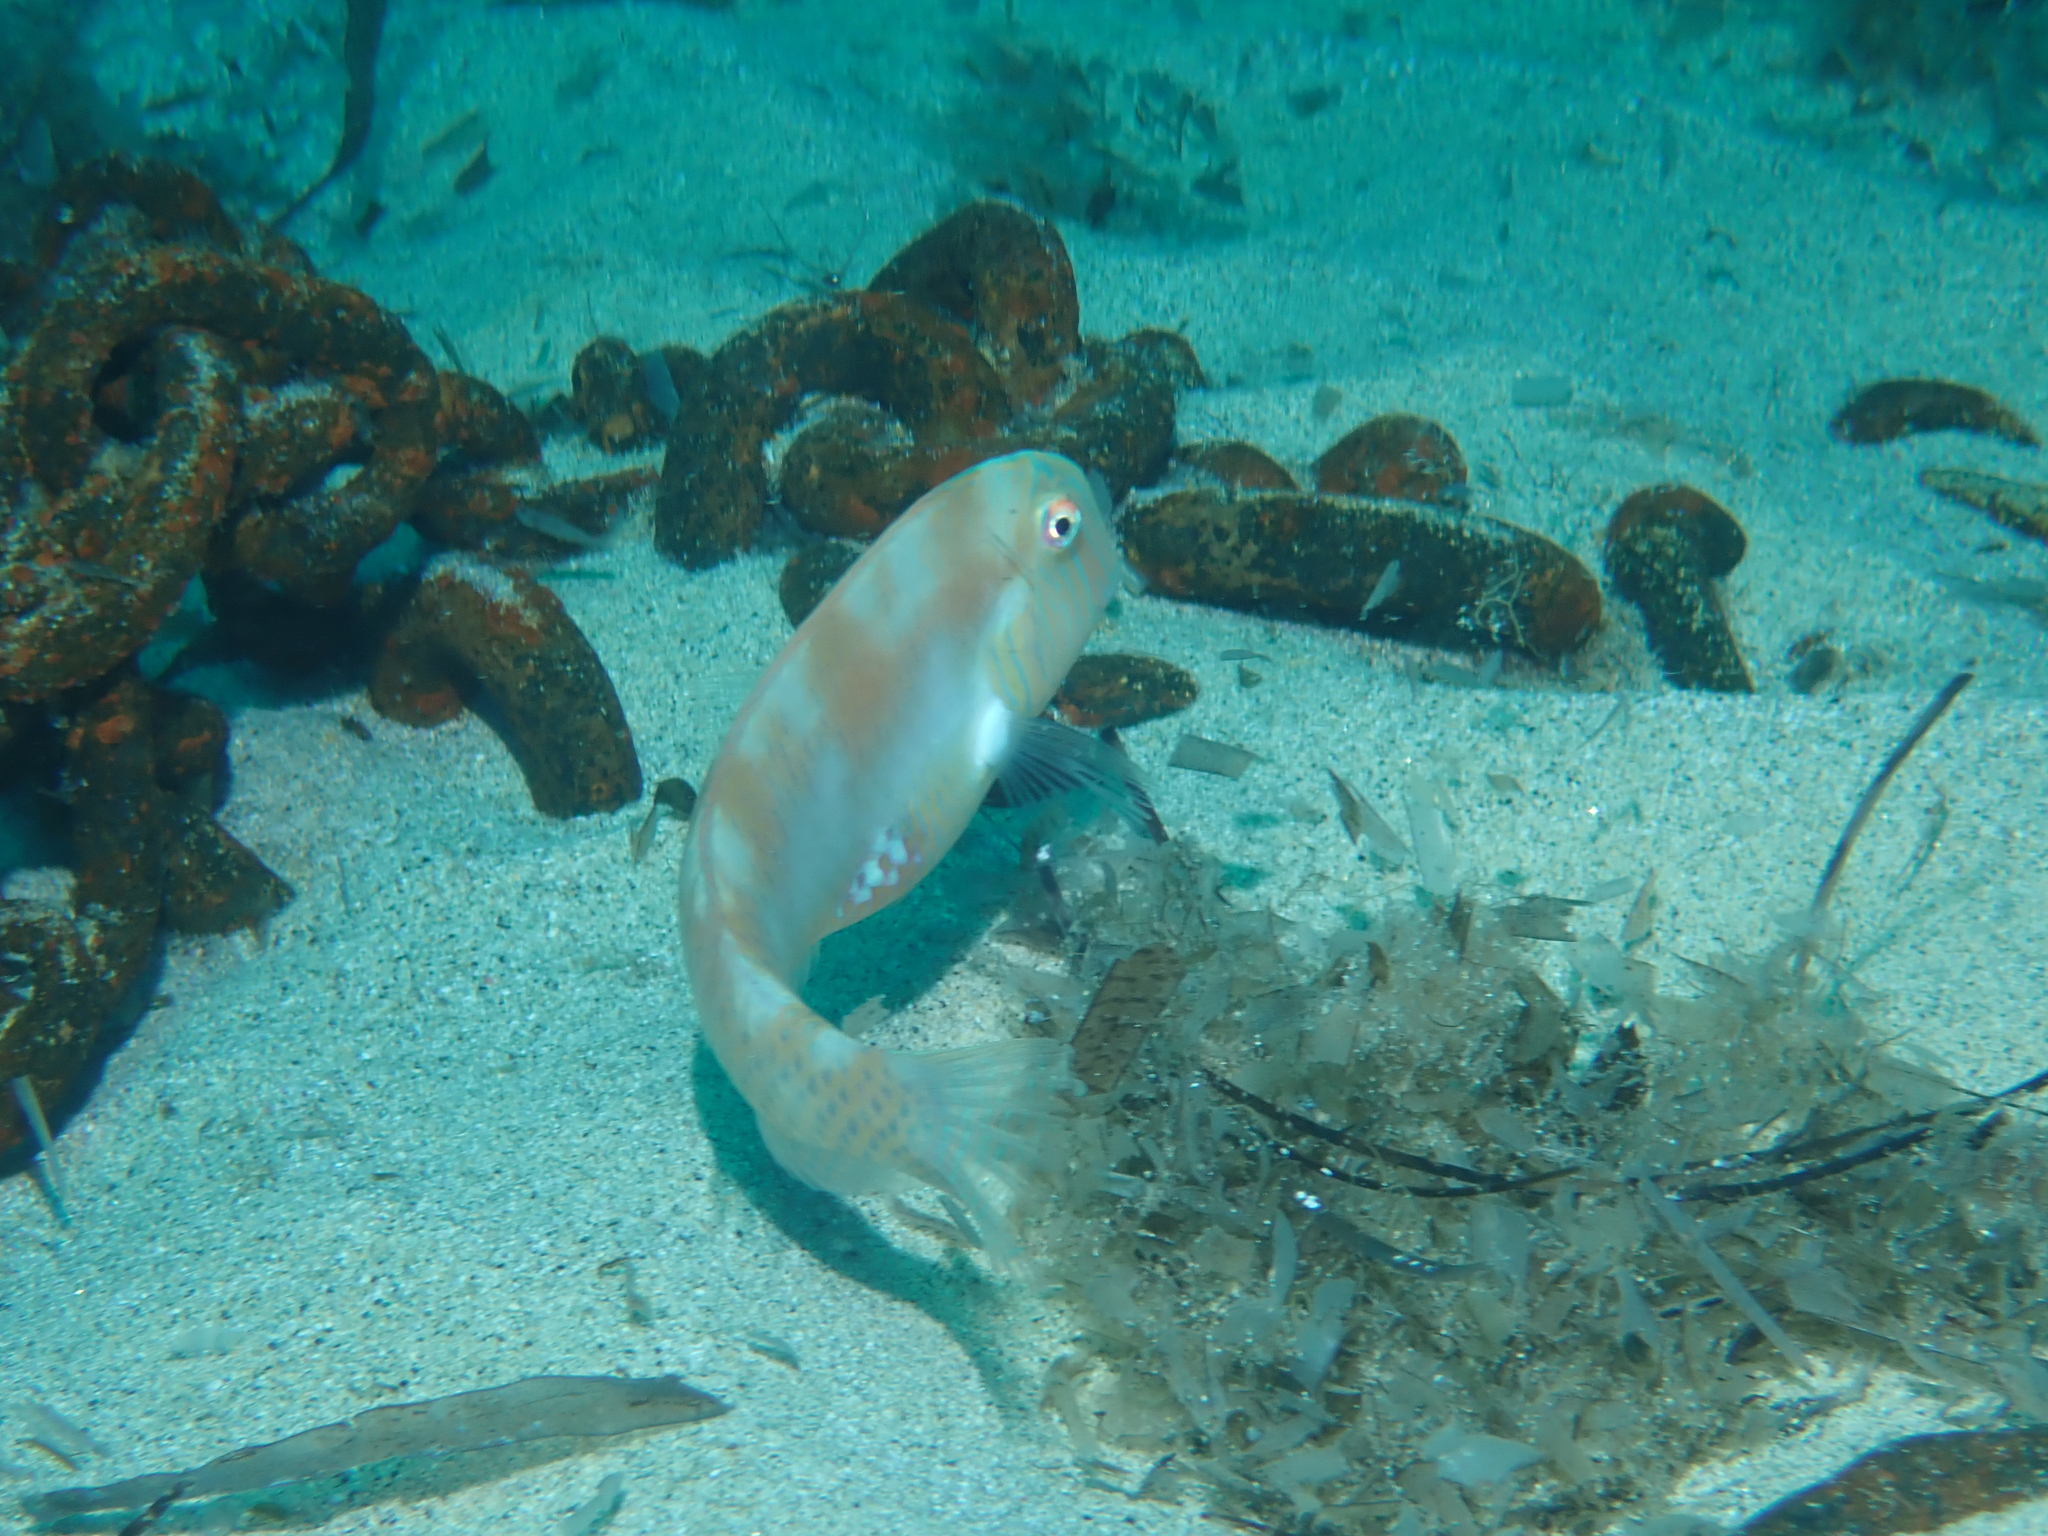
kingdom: Animalia
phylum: Chordata
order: Perciformes
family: Labridae
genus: Xyrichtys
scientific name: Xyrichtys novacula
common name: Pearly razorfish
